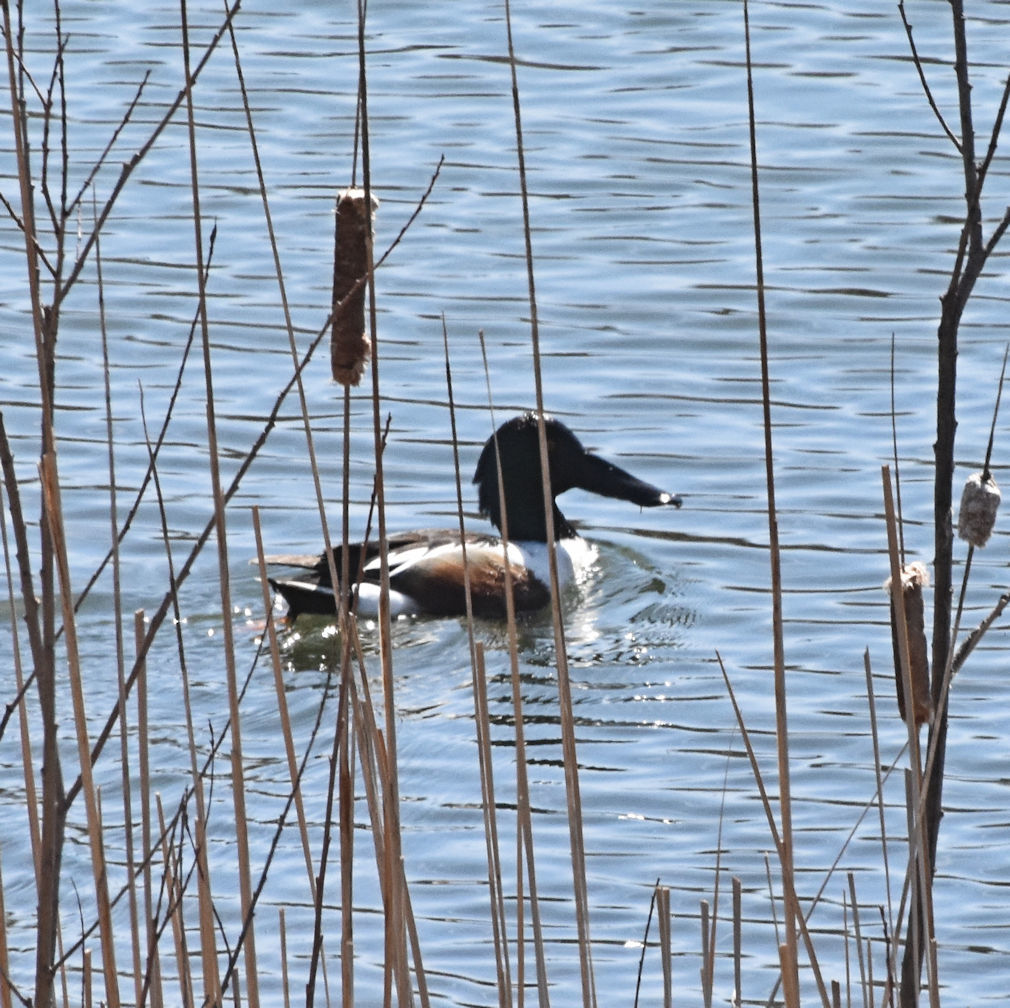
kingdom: Animalia
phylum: Chordata
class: Aves
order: Anseriformes
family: Anatidae
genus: Spatula
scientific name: Spatula clypeata
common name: Northern shoveler
